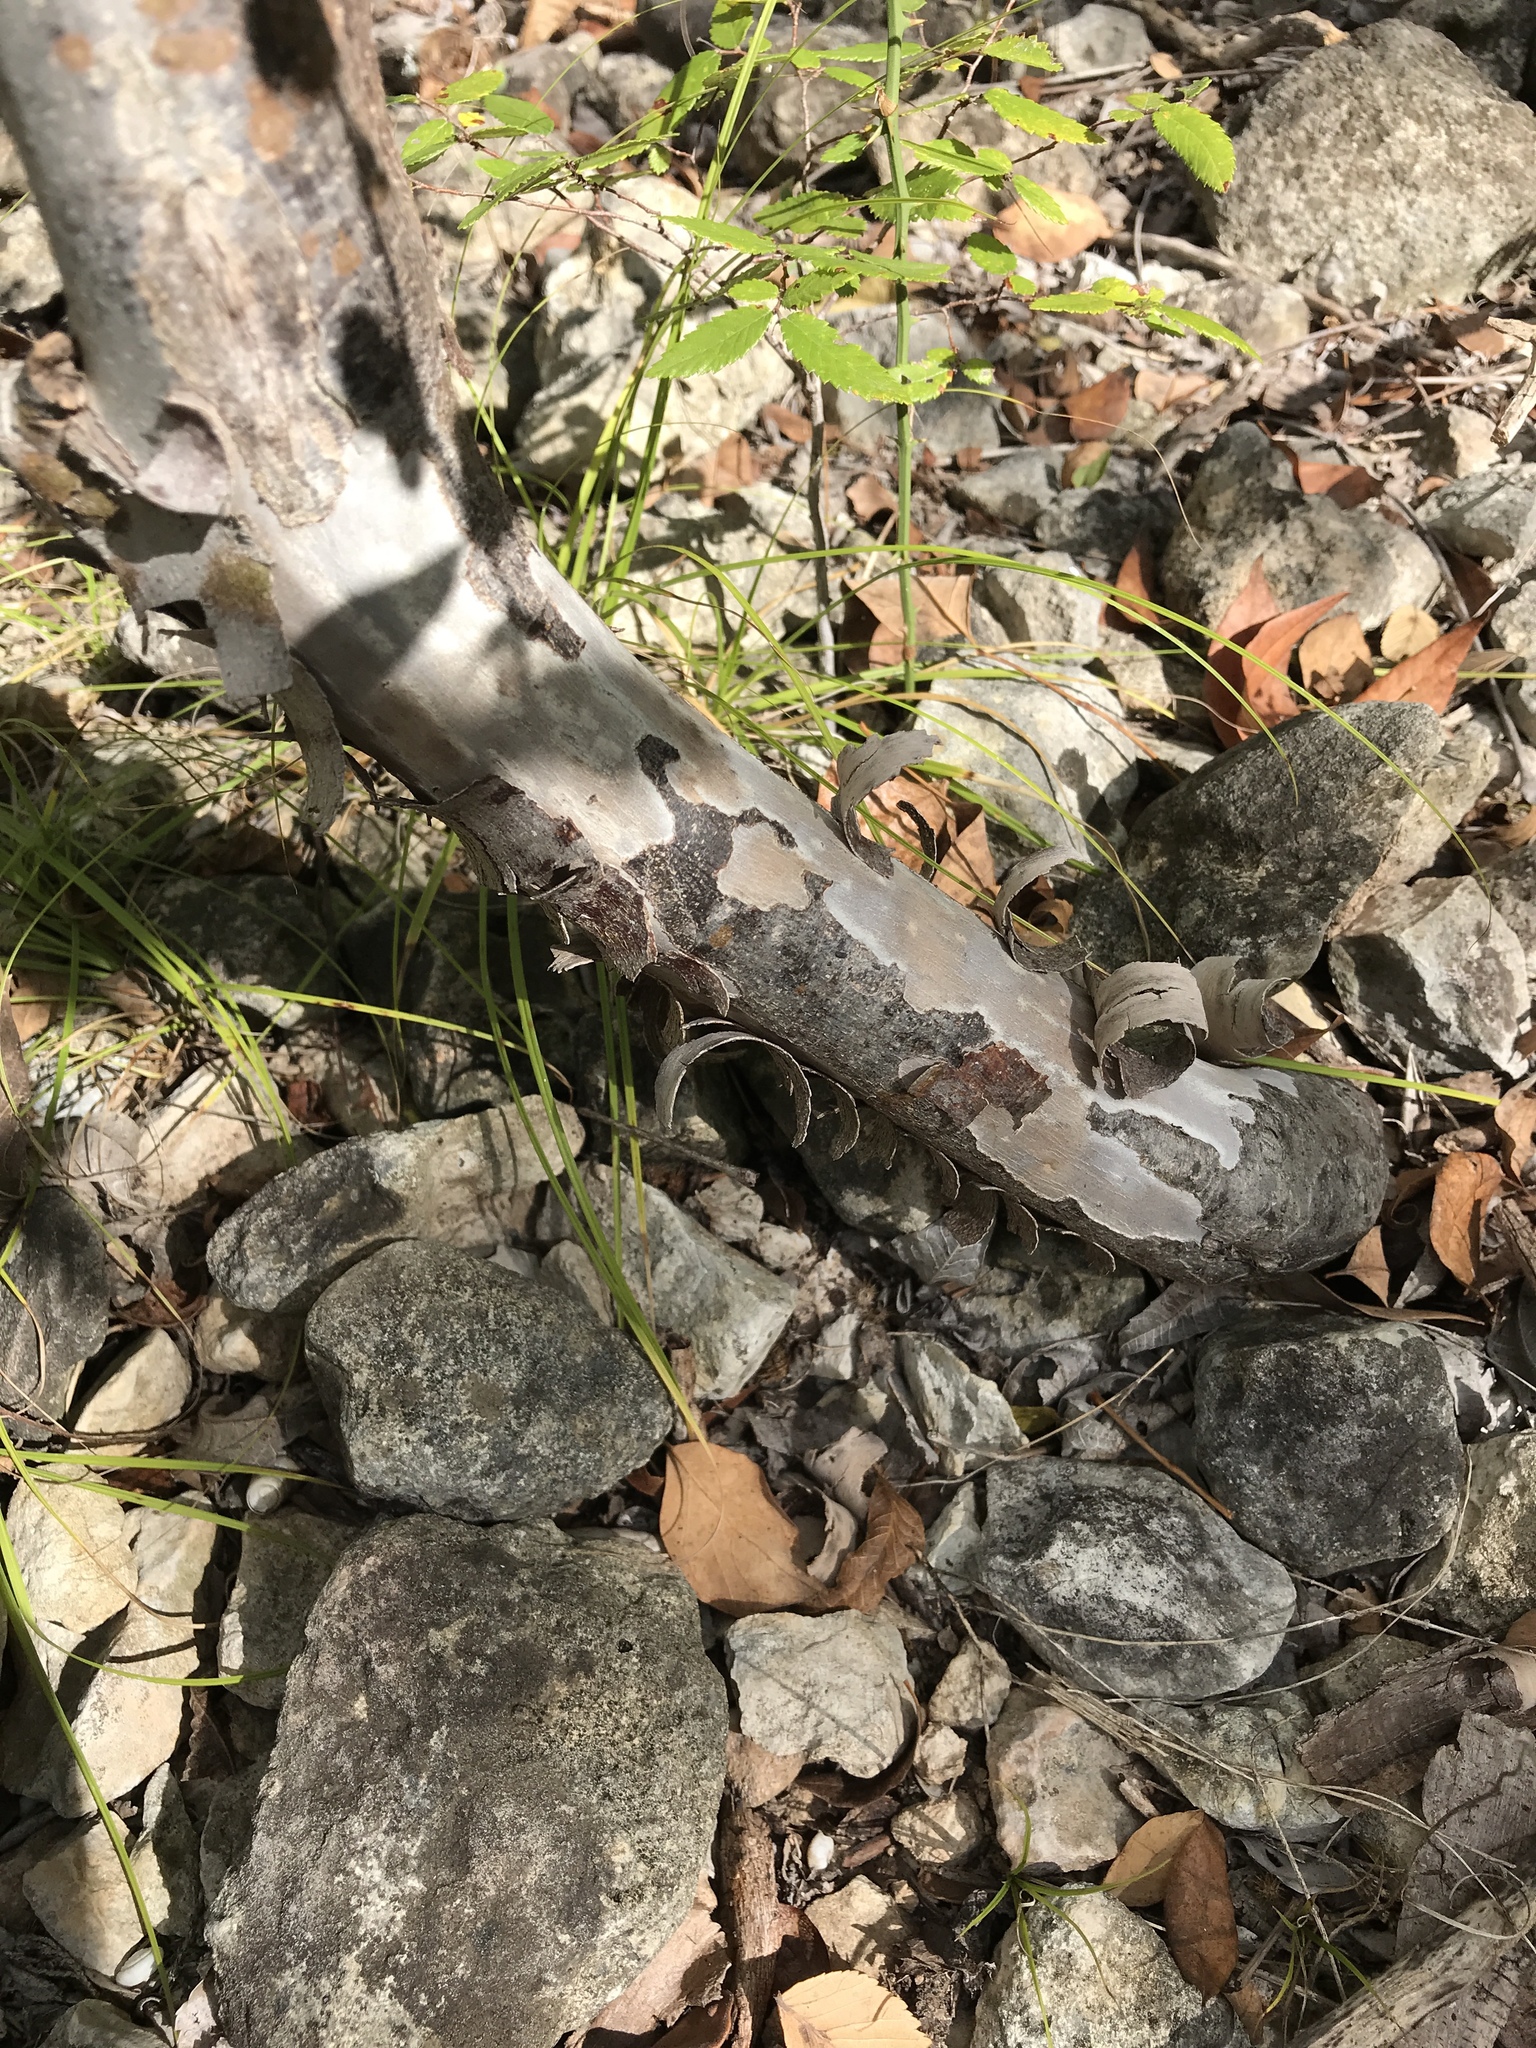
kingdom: Plantae
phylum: Tracheophyta
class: Magnoliopsida
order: Ericales
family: Ebenaceae
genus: Diospyros
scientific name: Diospyros texana
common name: Texas persimmon
